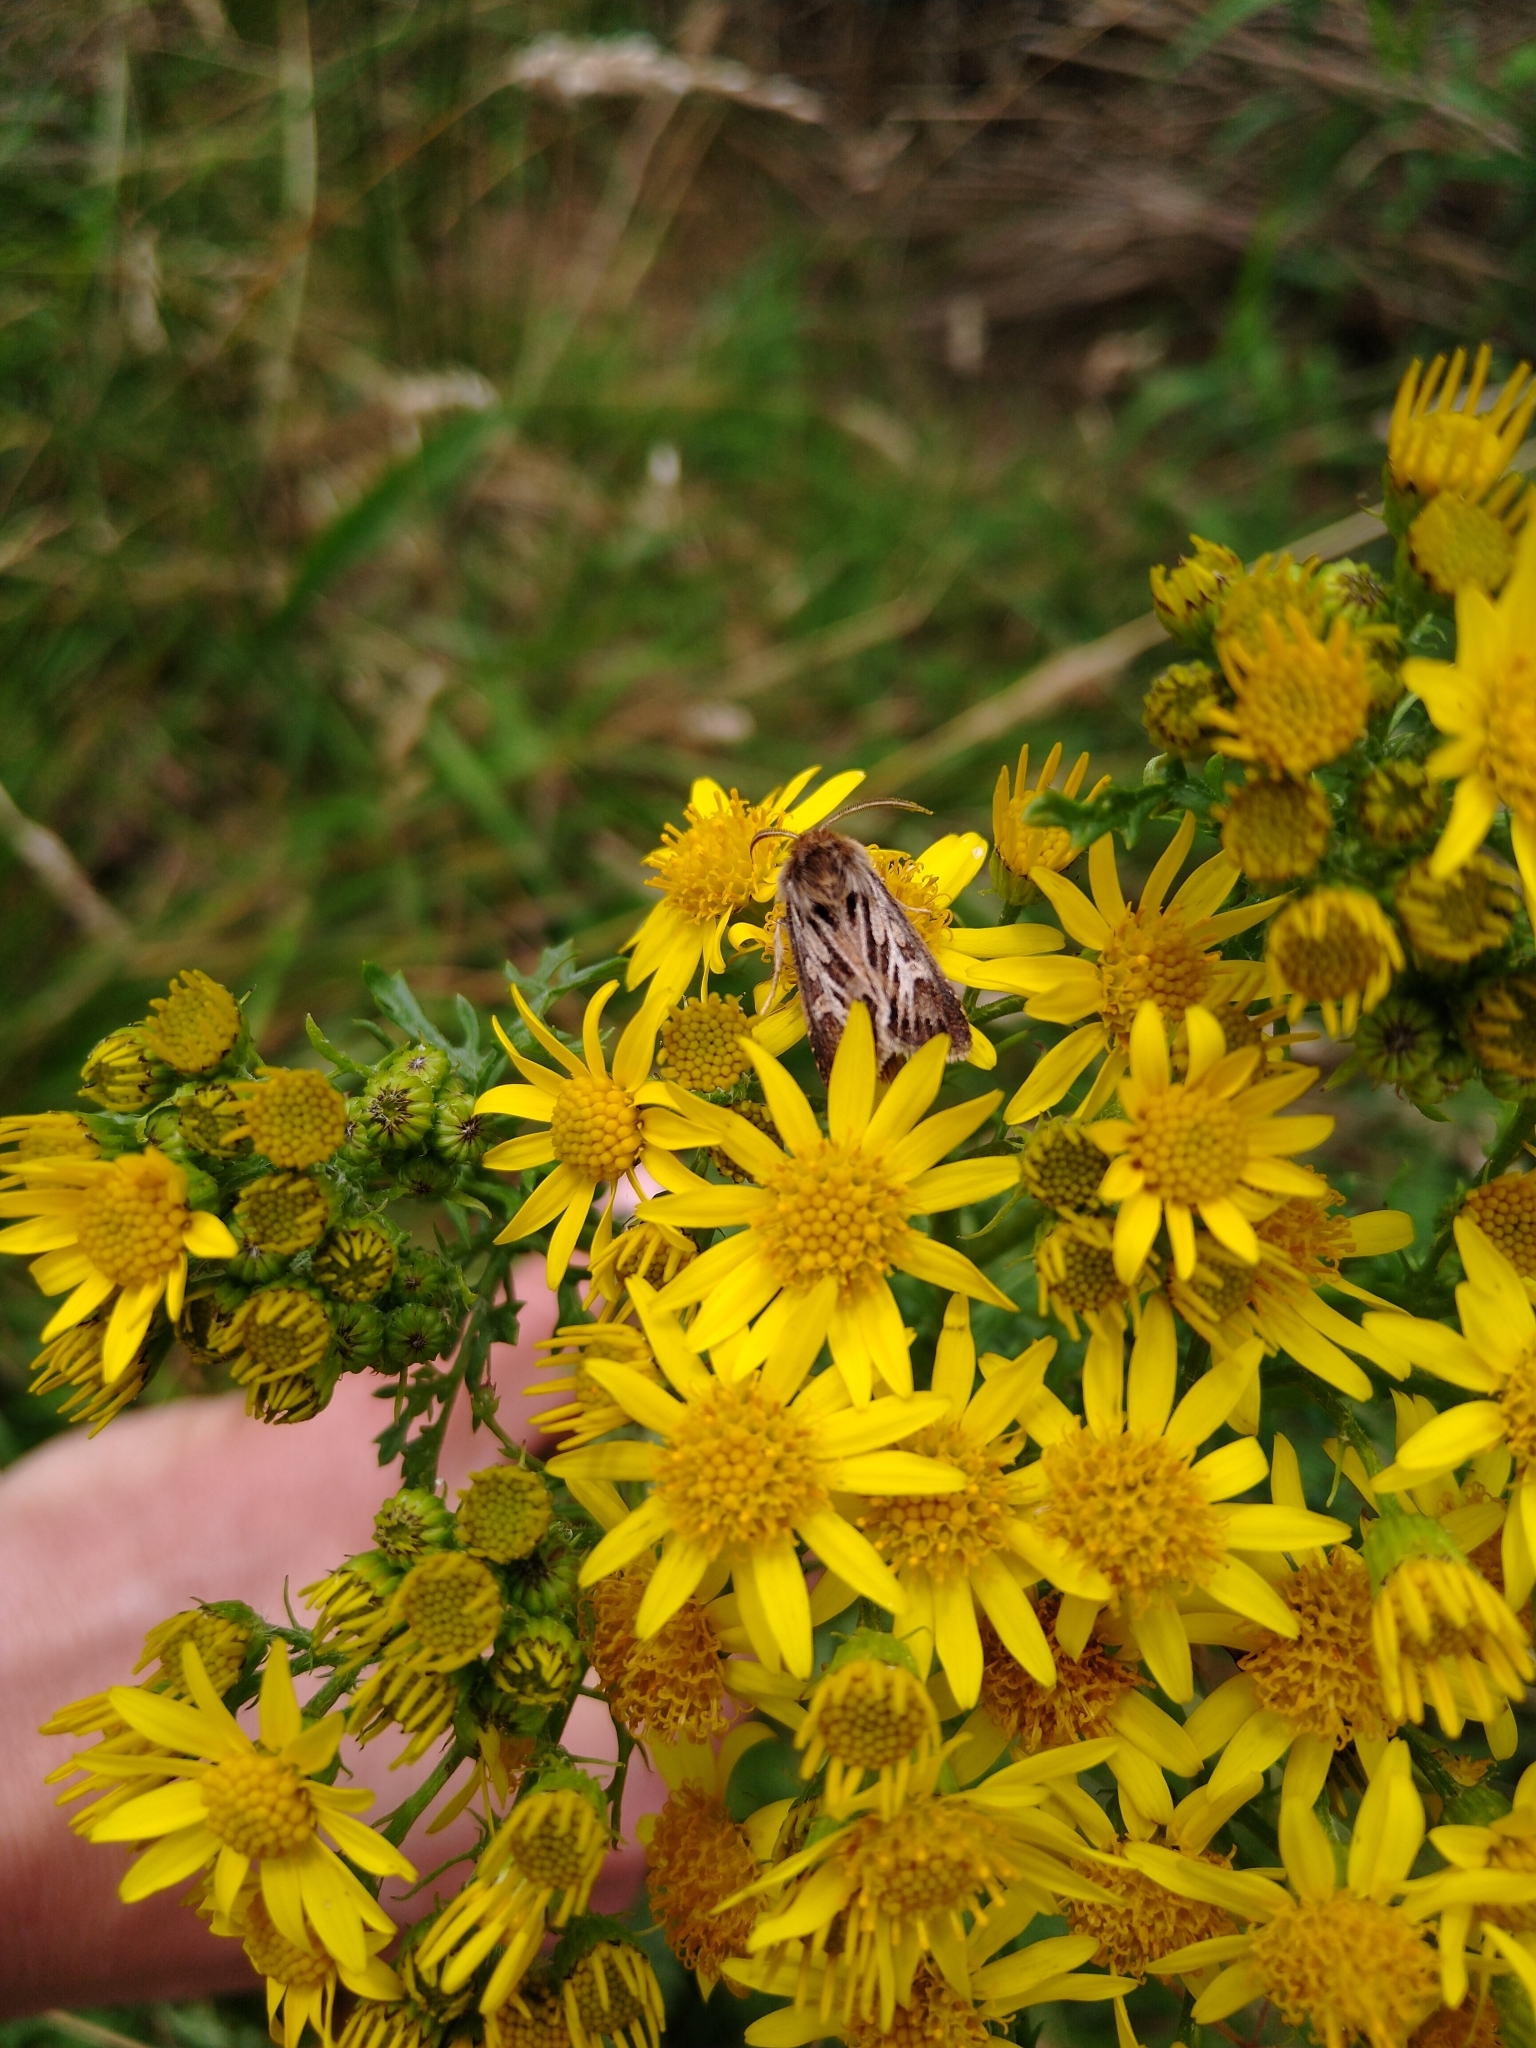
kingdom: Animalia
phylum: Arthropoda
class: Insecta
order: Lepidoptera
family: Noctuidae
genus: Cerapteryx
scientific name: Cerapteryx graminis
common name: Antler moth
